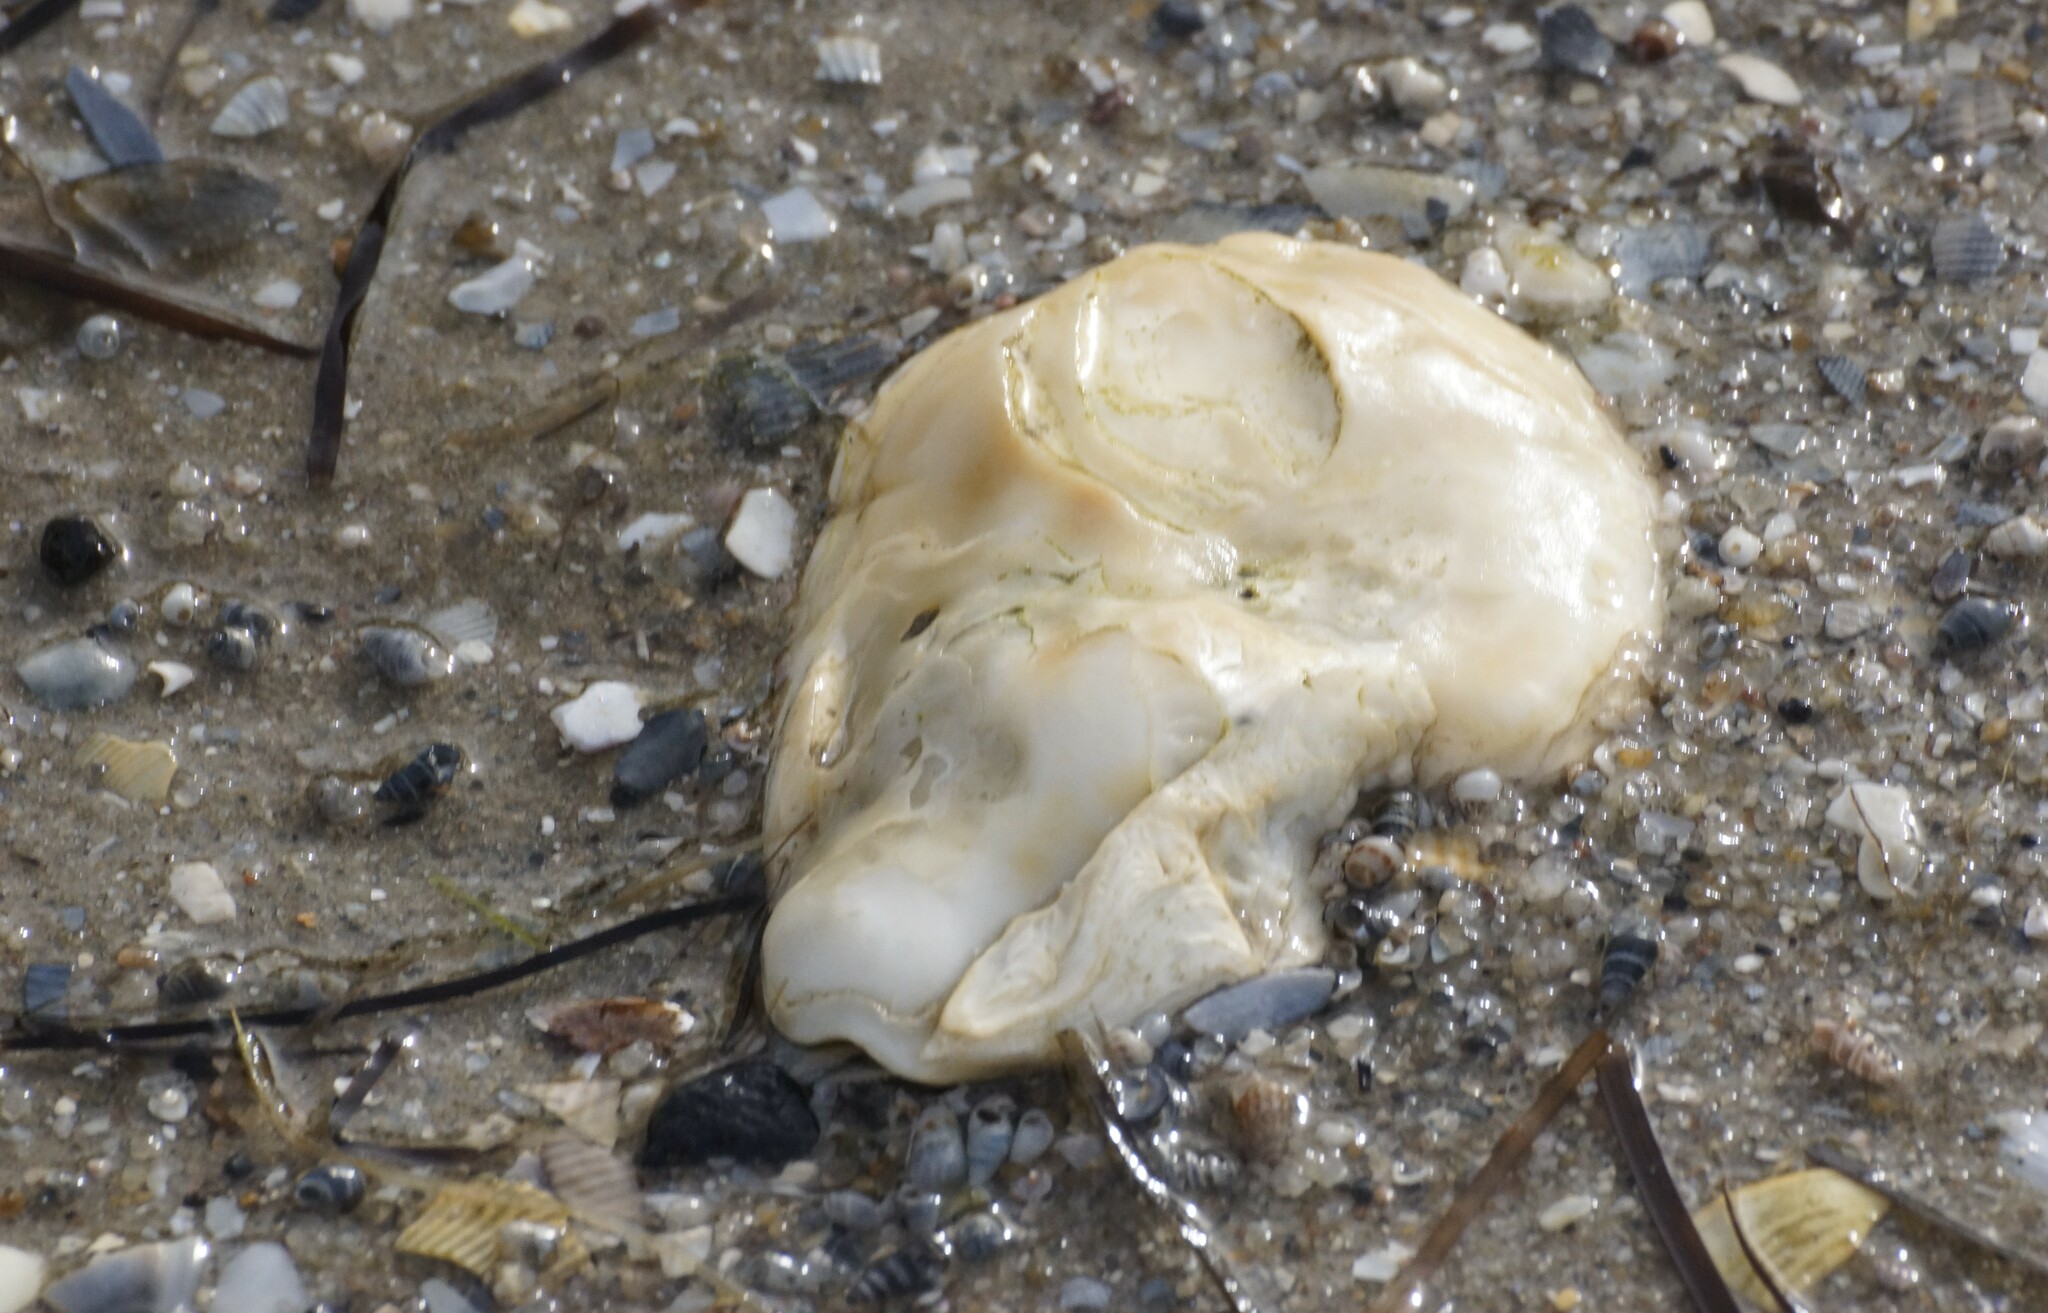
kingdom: Animalia
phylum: Mollusca
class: Bivalvia
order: Ostreida
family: Ostreidae
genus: Ostrea
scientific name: Ostrea angasi
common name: Angasi oyster
